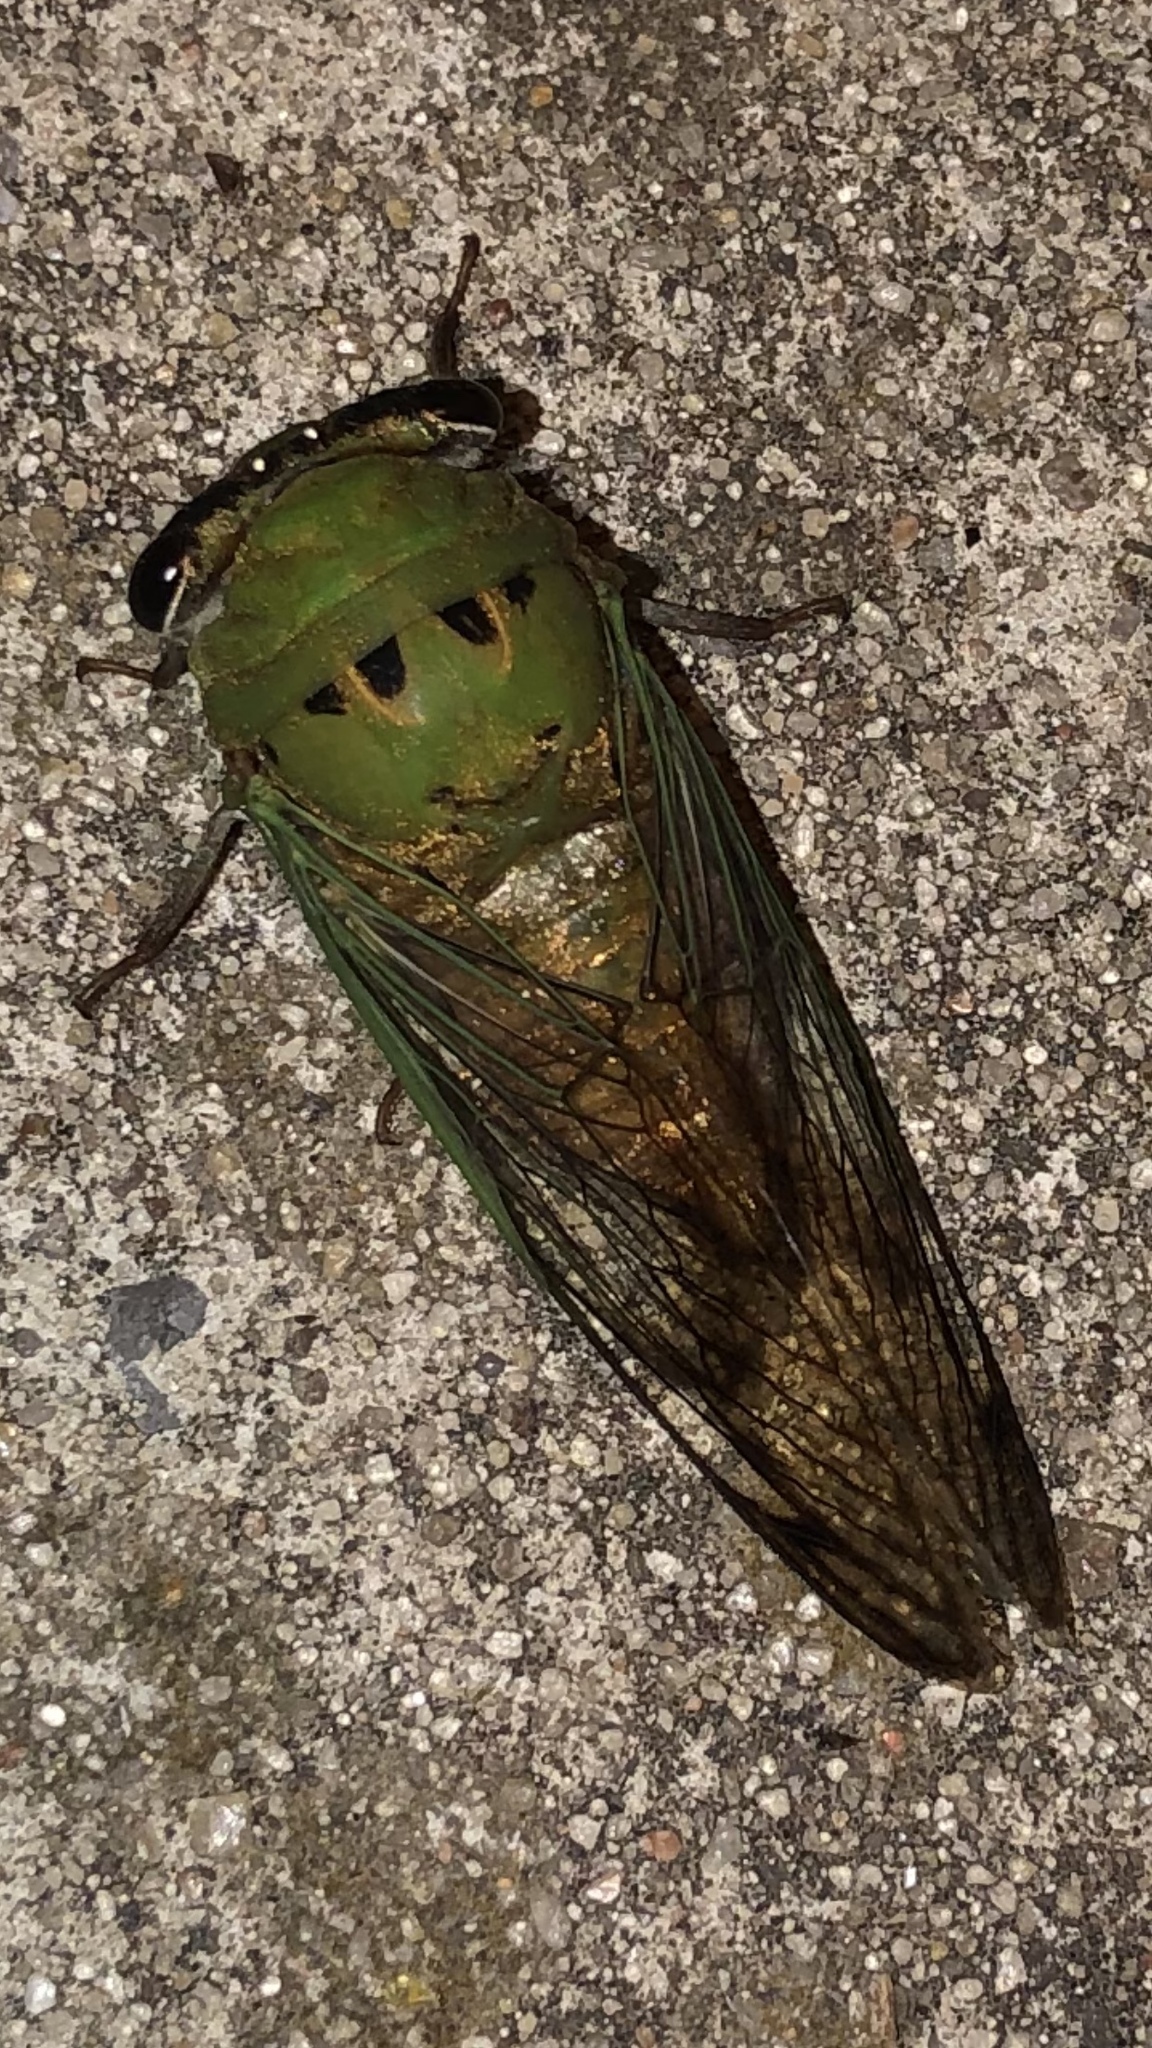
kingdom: Animalia
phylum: Arthropoda
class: Insecta
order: Hemiptera
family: Cicadidae
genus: Neotibicen
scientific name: Neotibicen superbus
